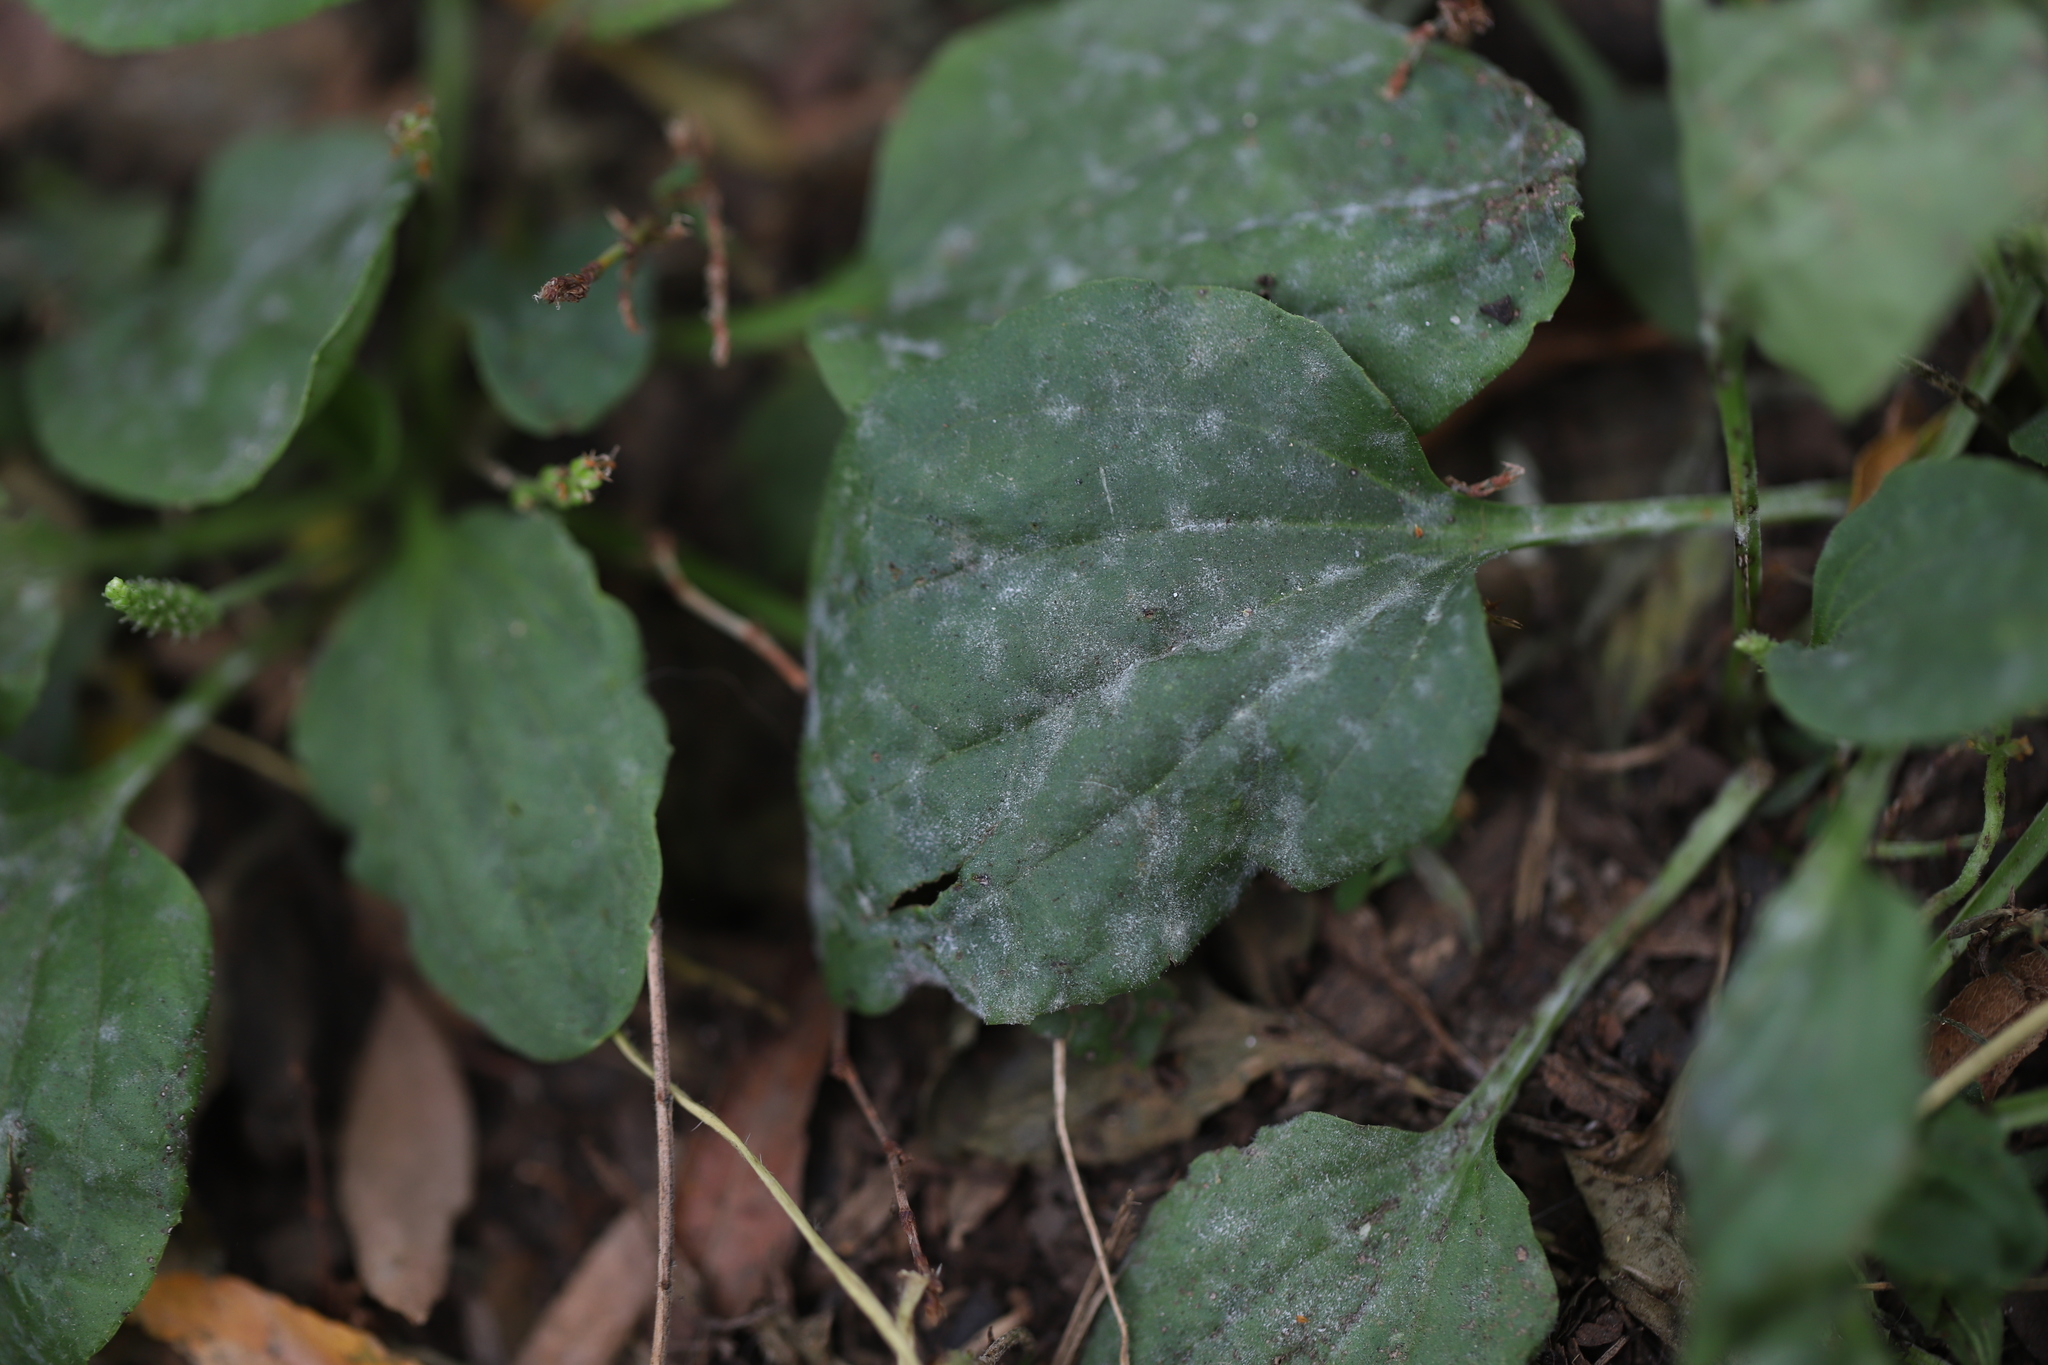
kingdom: Fungi
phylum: Ascomycota
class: Leotiomycetes
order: Helotiales
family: Erysiphaceae
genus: Golovinomyces
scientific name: Golovinomyces sordidus
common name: Plantain mildew
